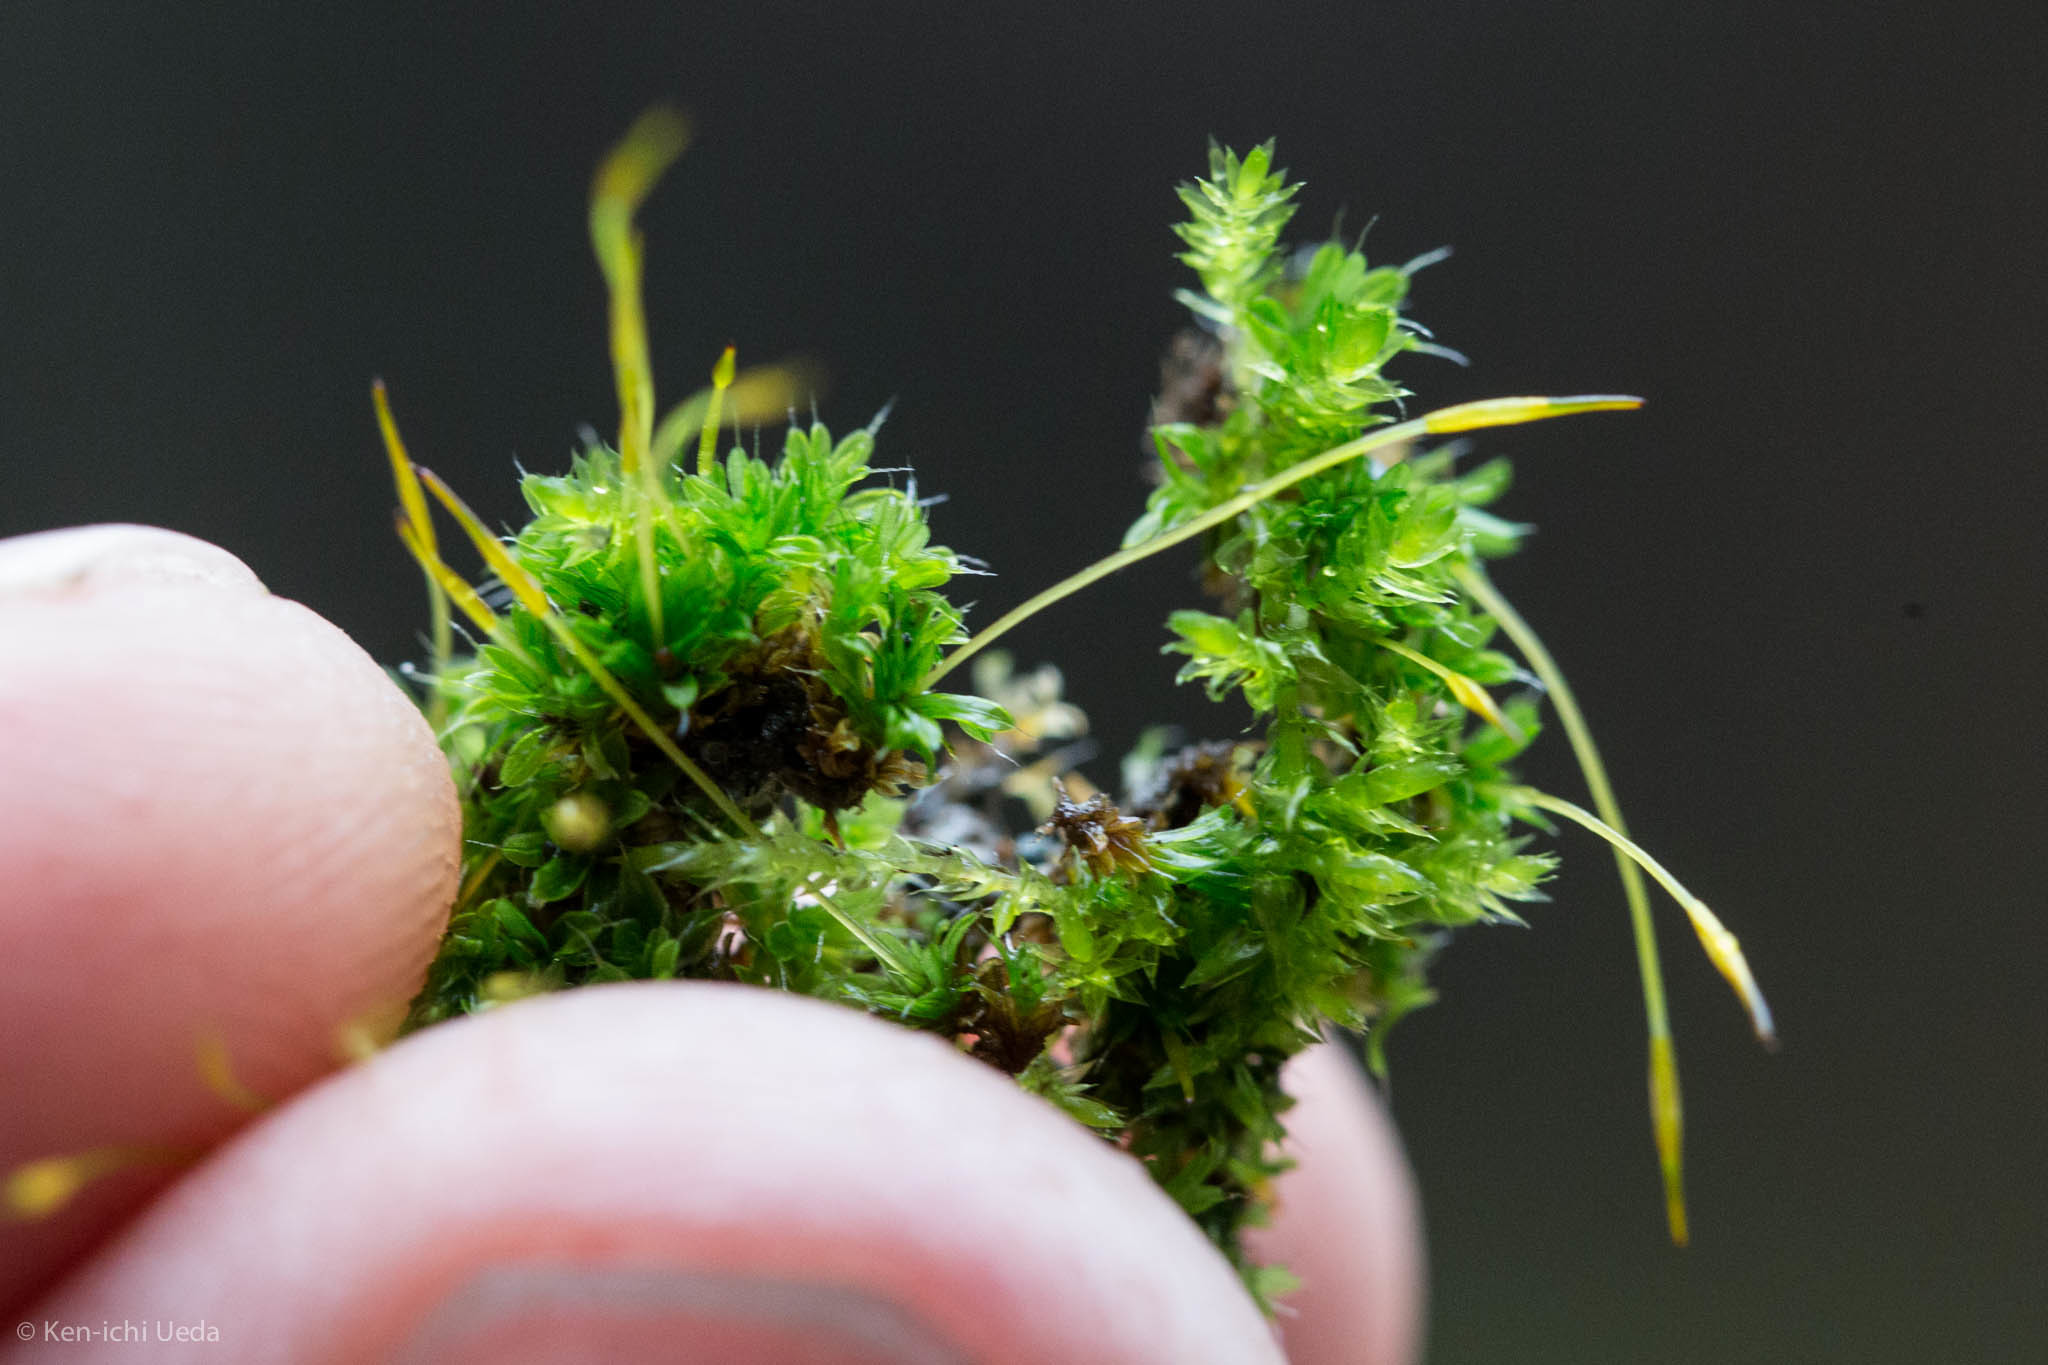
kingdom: Plantae
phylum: Bryophyta
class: Bryopsida
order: Pottiales
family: Pottiaceae
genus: Tortula
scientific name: Tortula muralis
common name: Wall screw-moss
